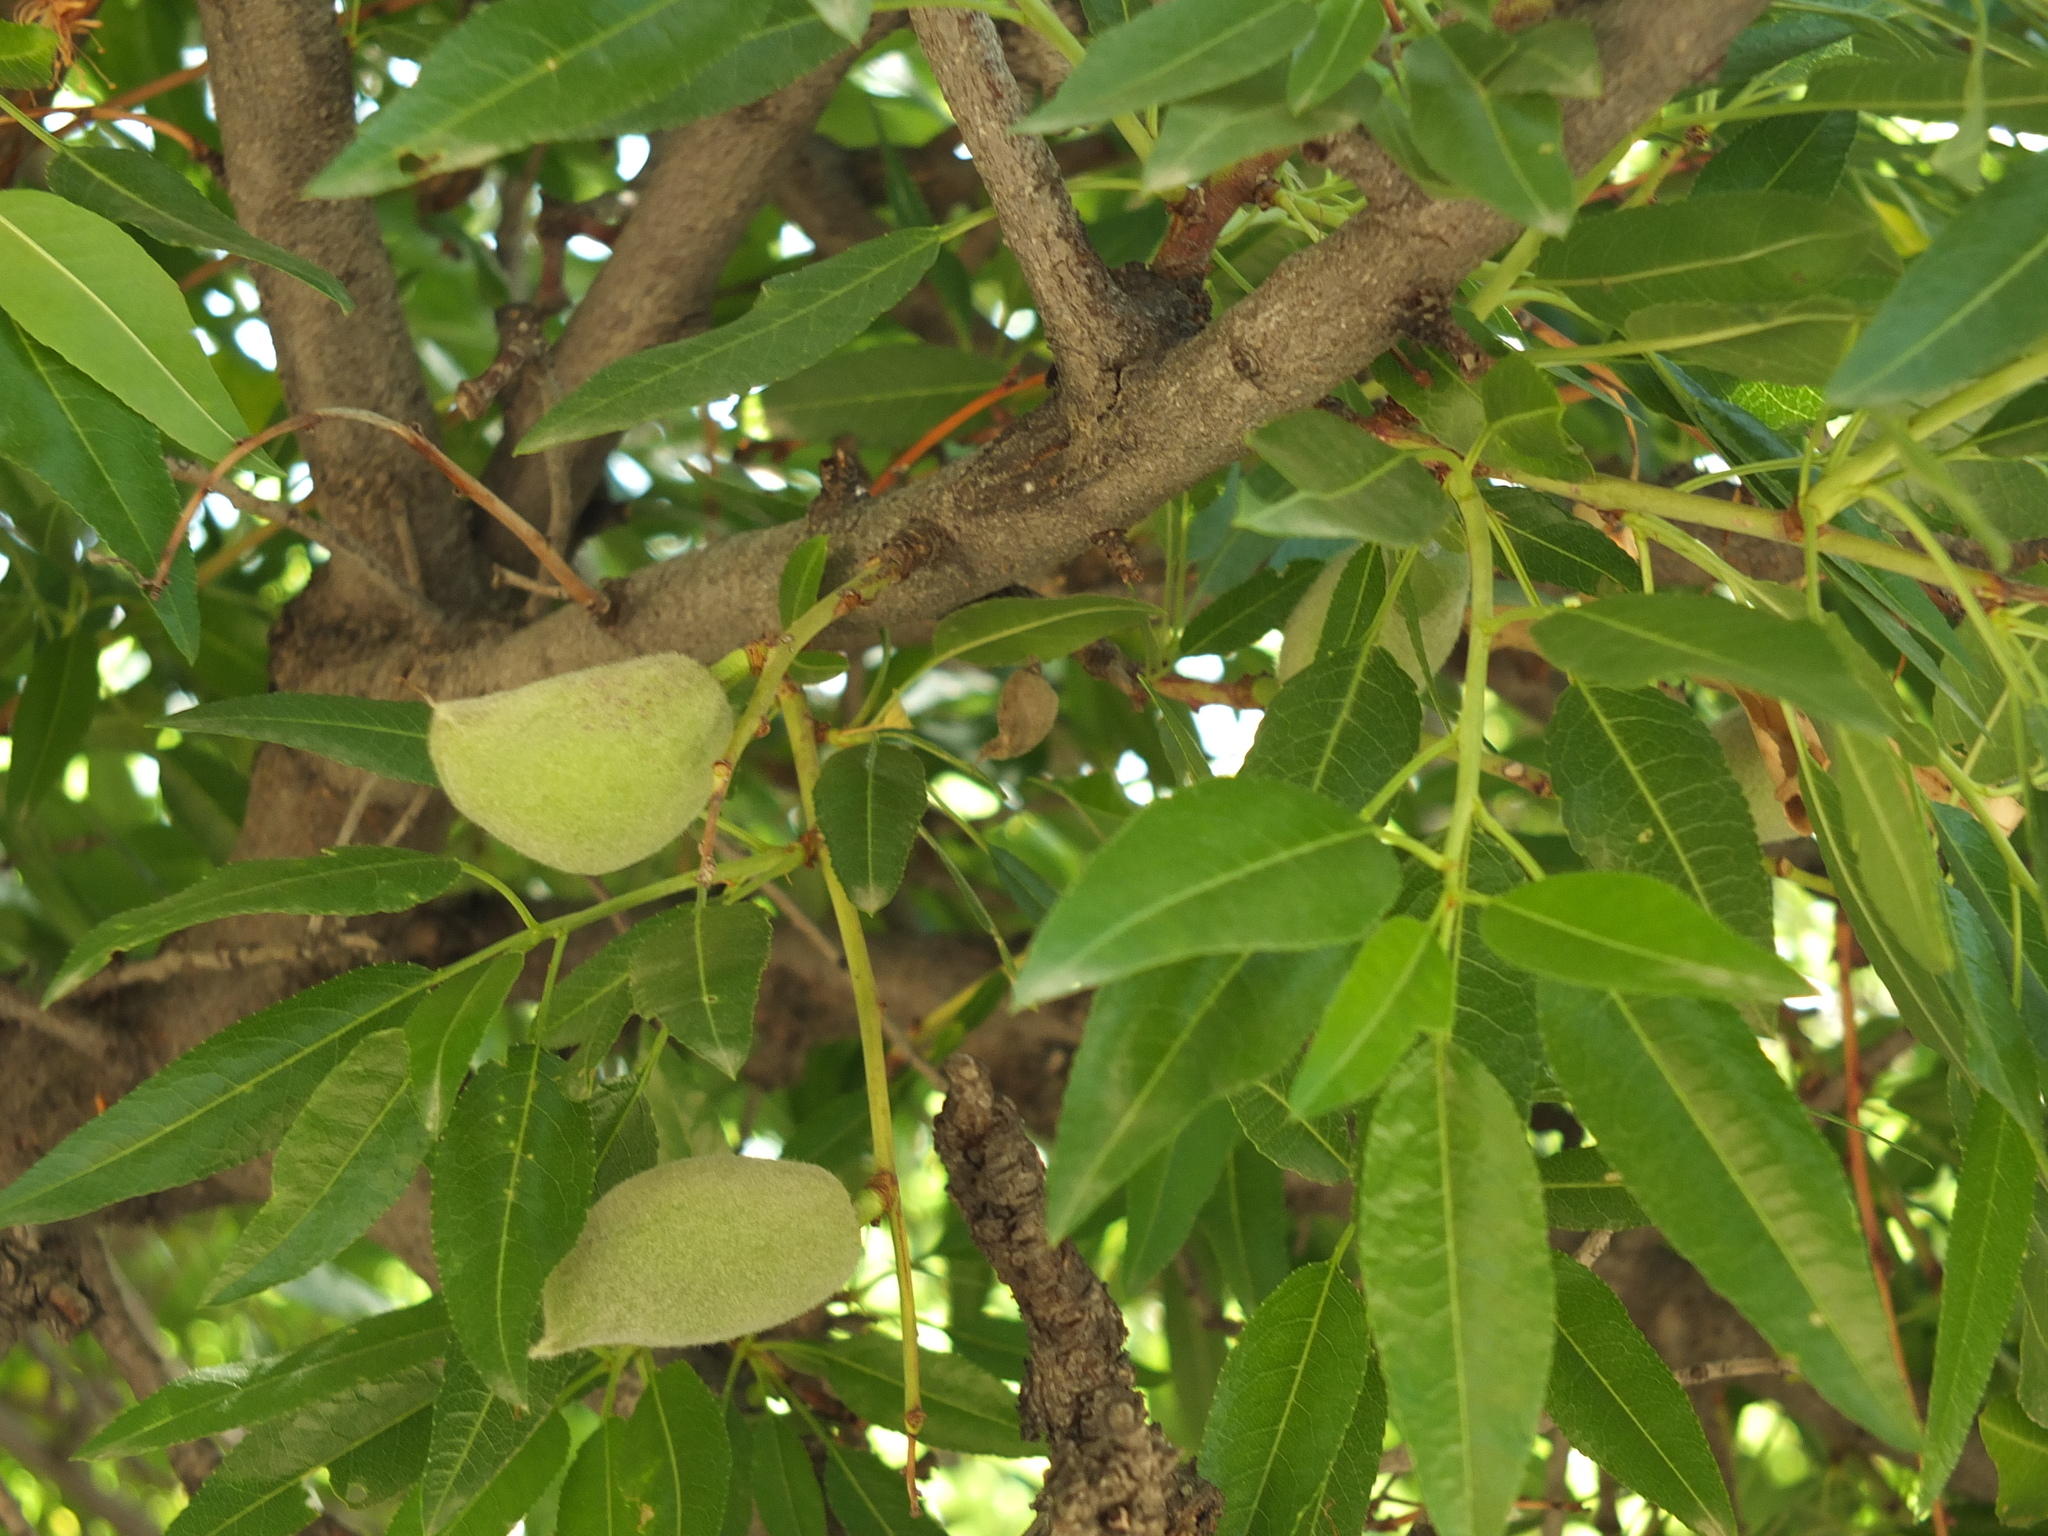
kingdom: Plantae
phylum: Tracheophyta
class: Magnoliopsida
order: Rosales
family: Rosaceae
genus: Prunus
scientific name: Prunus amygdalus
